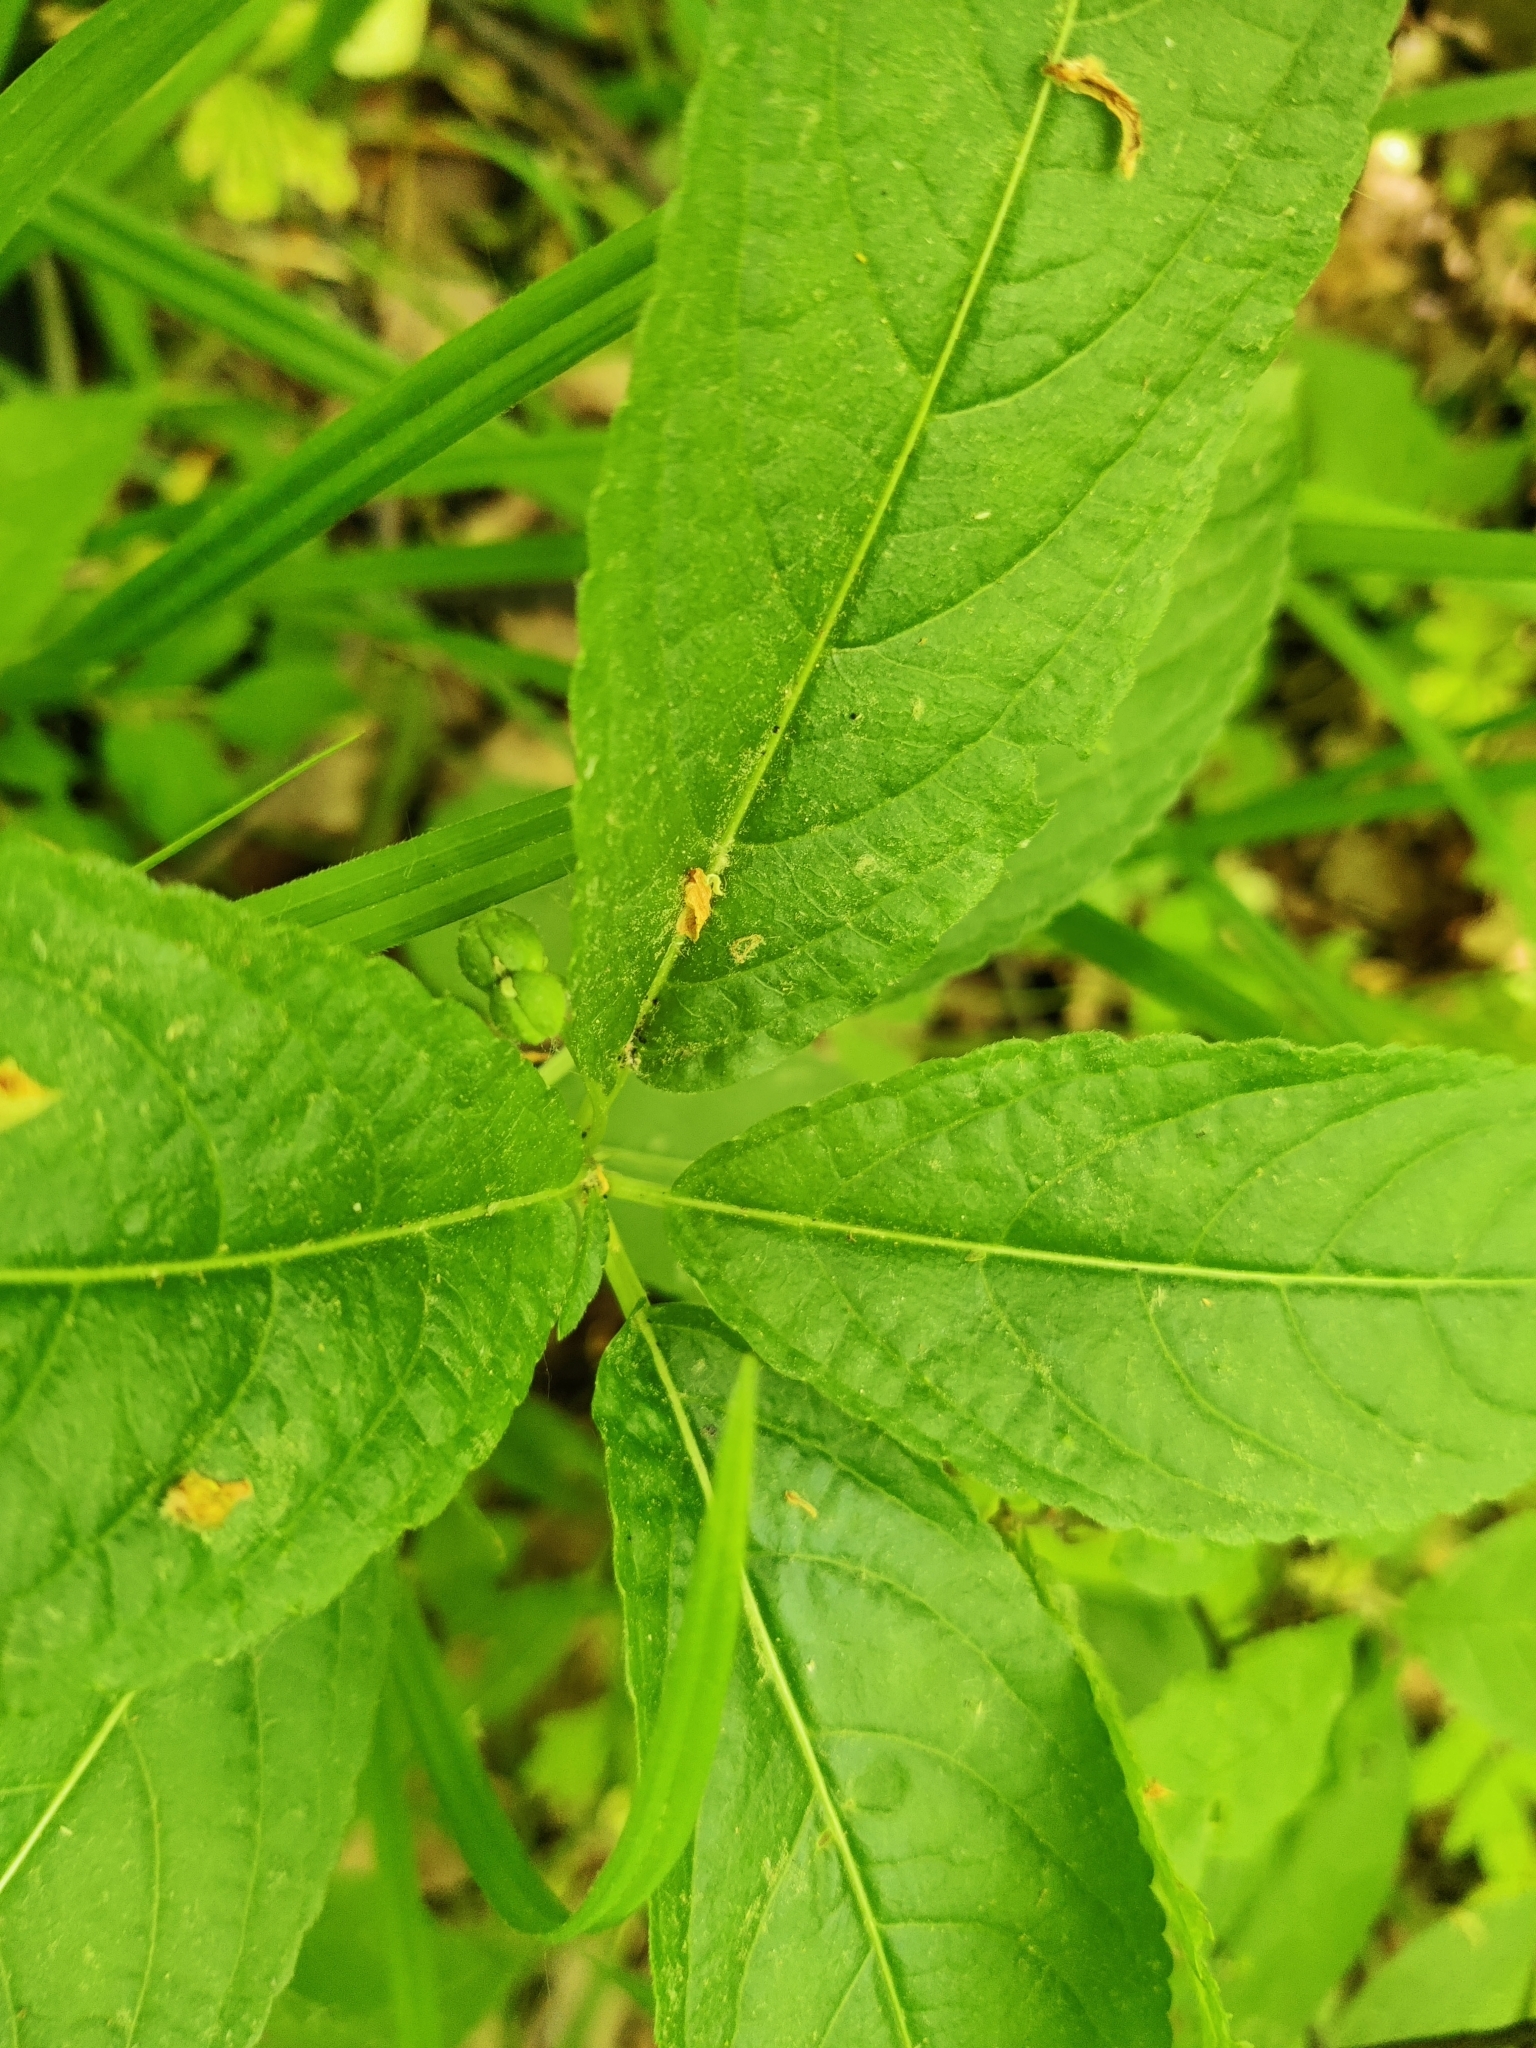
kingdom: Plantae
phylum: Tracheophyta
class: Magnoliopsida
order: Malpighiales
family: Euphorbiaceae
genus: Mercurialis
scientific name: Mercurialis perennis
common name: Dog mercury
